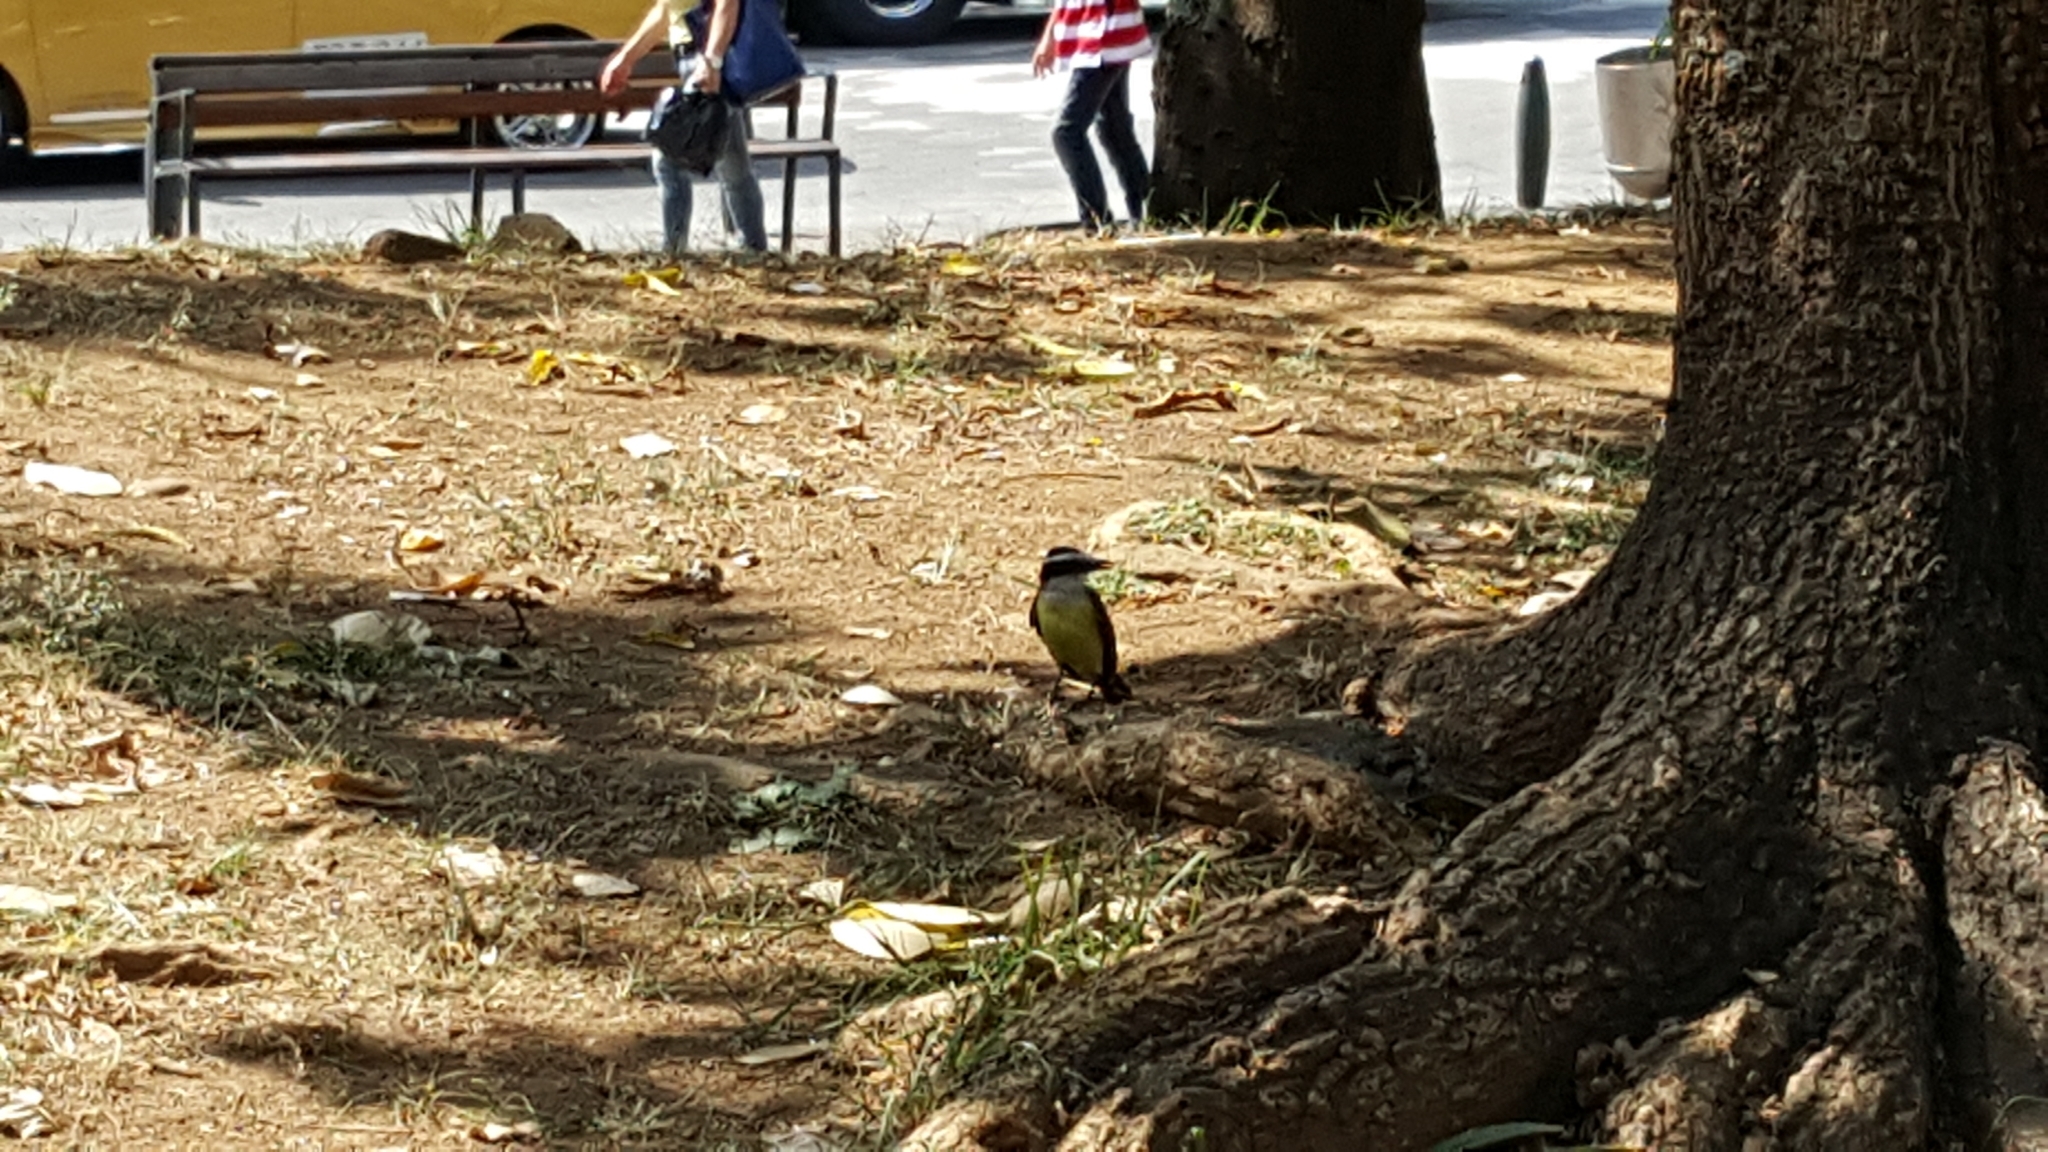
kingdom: Animalia
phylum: Chordata
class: Aves
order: Passeriformes
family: Tyrannidae
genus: Pitangus
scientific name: Pitangus sulphuratus
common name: Great kiskadee
